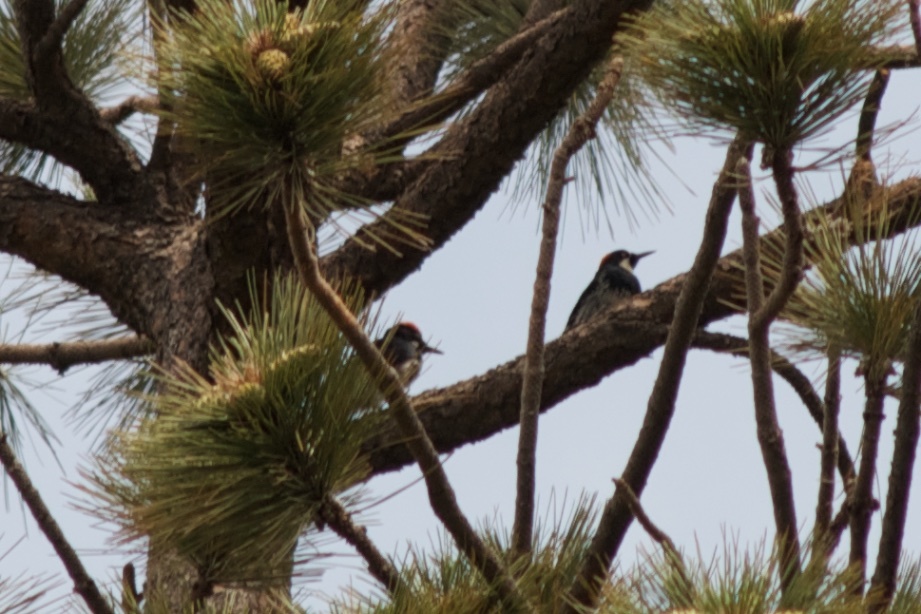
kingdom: Animalia
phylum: Chordata
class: Aves
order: Piciformes
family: Picidae
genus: Melanerpes
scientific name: Melanerpes formicivorus
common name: Acorn woodpecker
